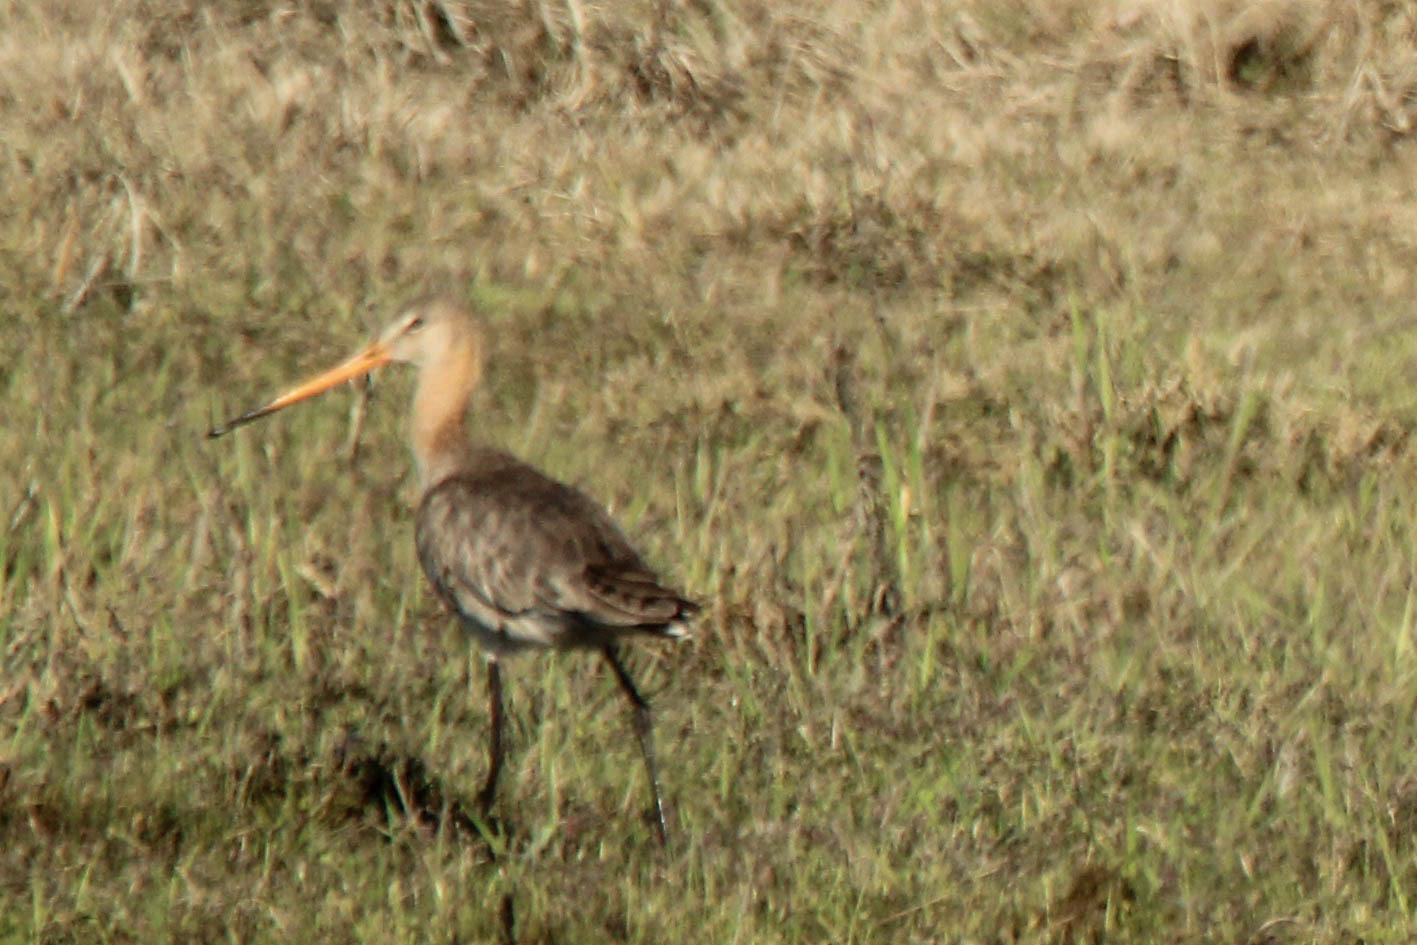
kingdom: Animalia
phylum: Chordata
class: Aves
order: Charadriiformes
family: Scolopacidae
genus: Limosa
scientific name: Limosa limosa
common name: Black-tailed godwit
